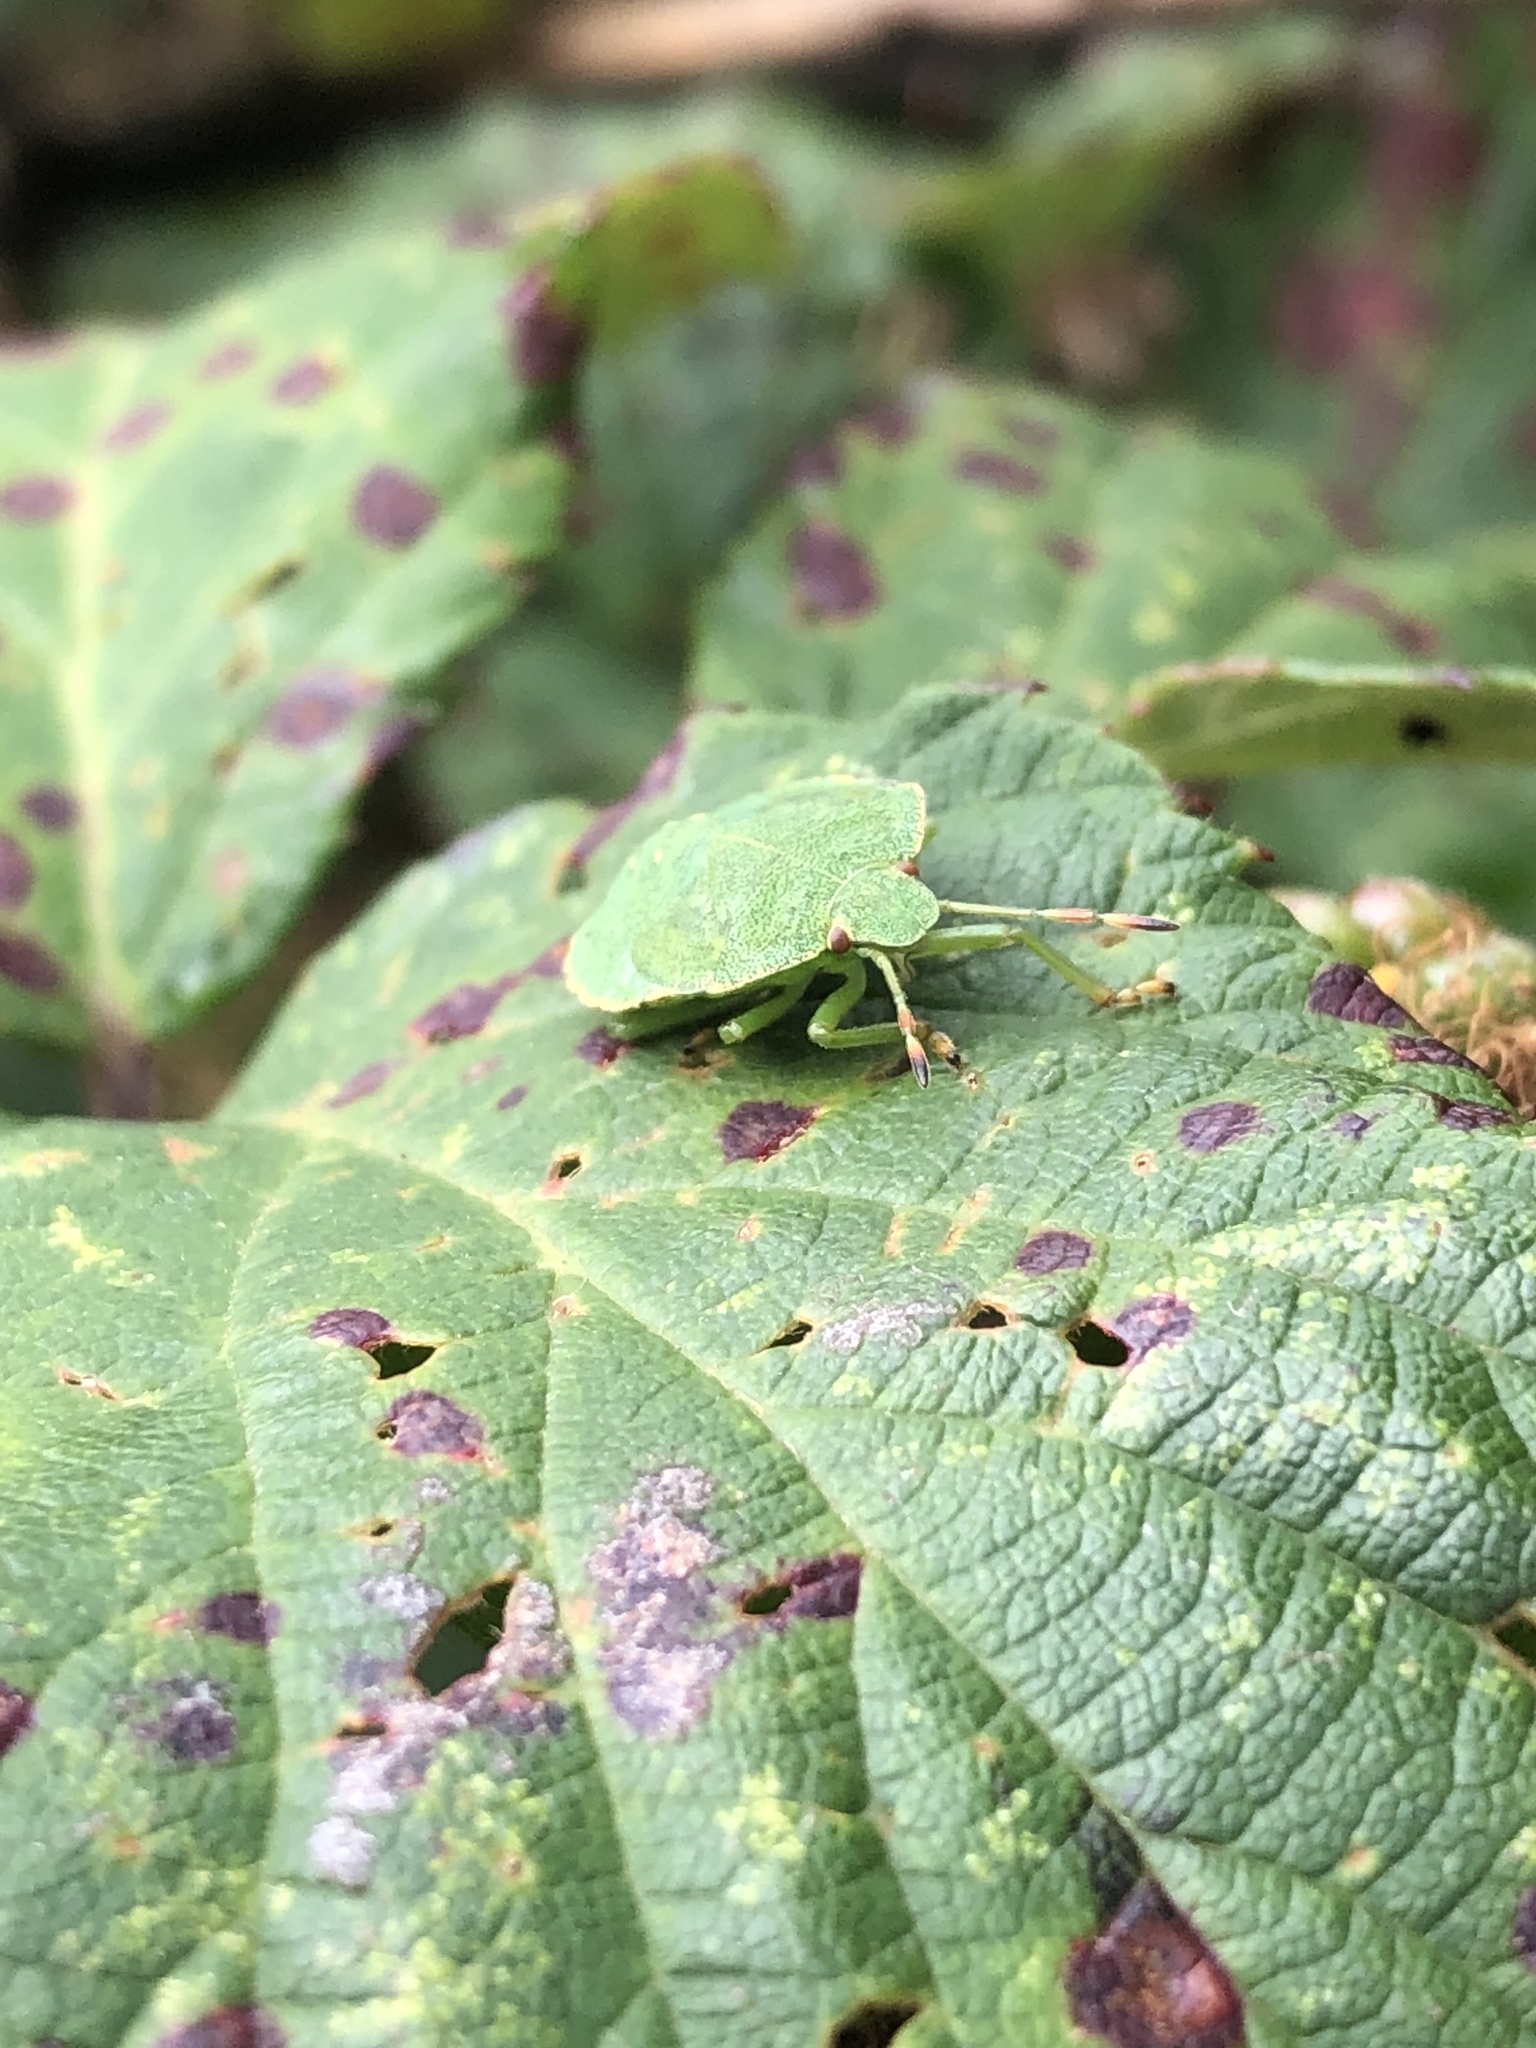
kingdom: Animalia
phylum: Arthropoda
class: Insecta
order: Hemiptera
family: Pentatomidae
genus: Palomena
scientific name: Palomena prasina
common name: Green shieldbug
